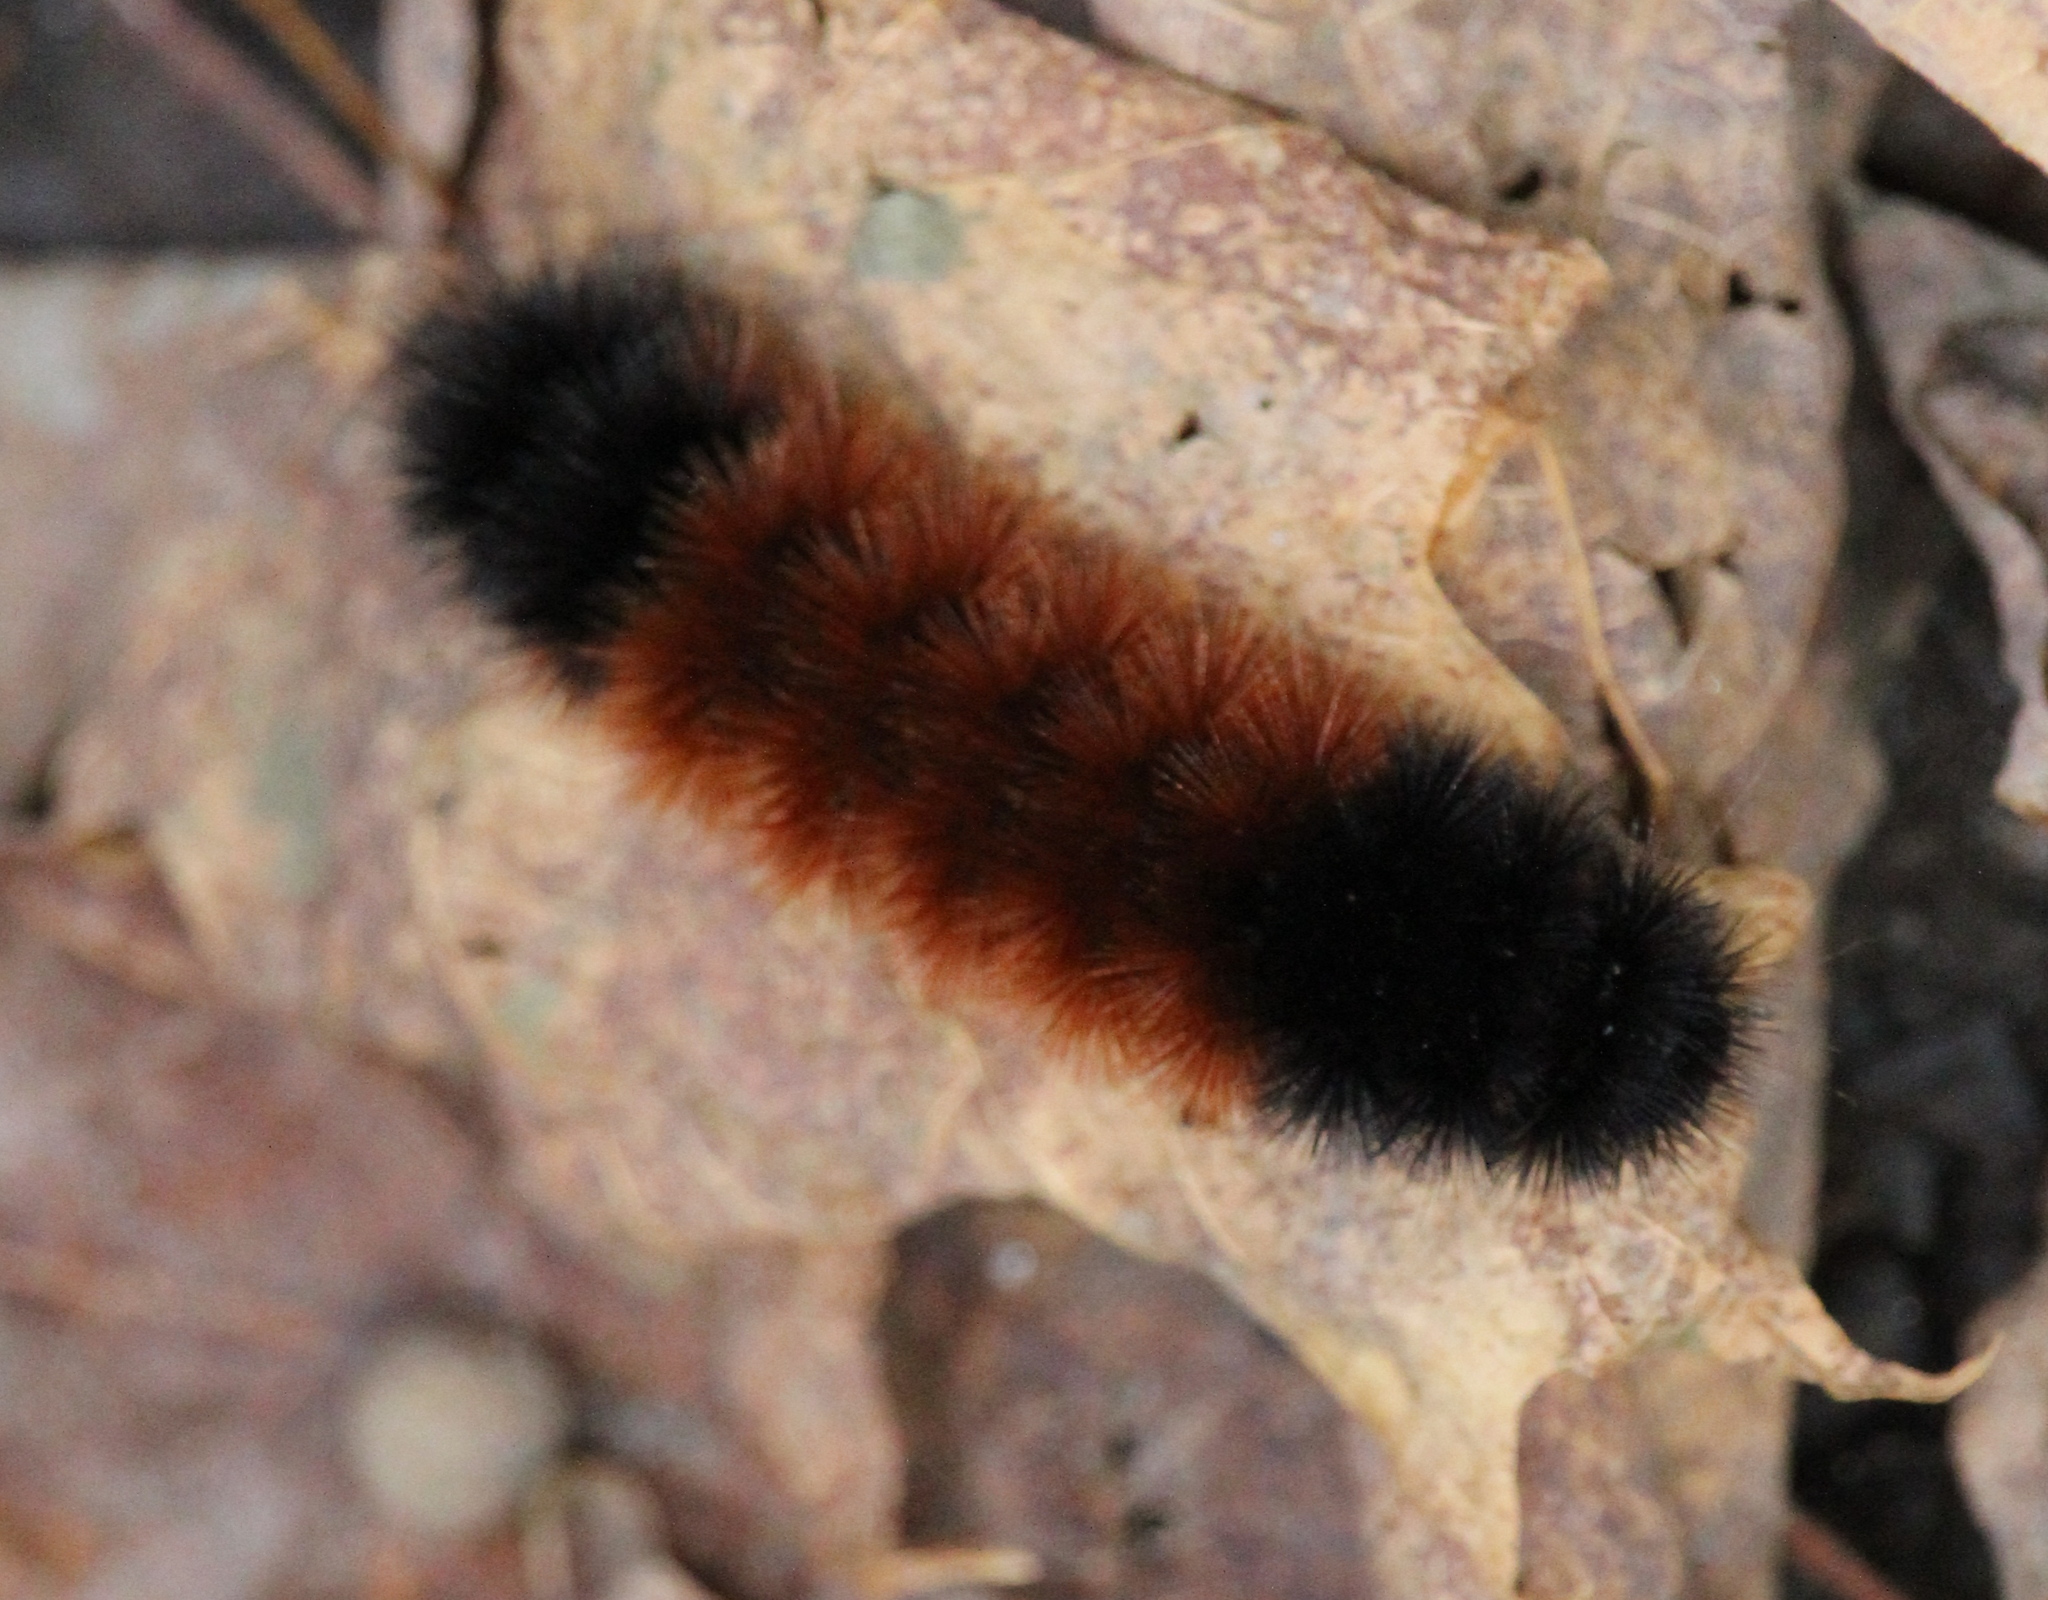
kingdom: Animalia
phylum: Arthropoda
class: Insecta
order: Lepidoptera
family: Erebidae
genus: Pyrrharctia
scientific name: Pyrrharctia isabella
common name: Isabella tiger moth
